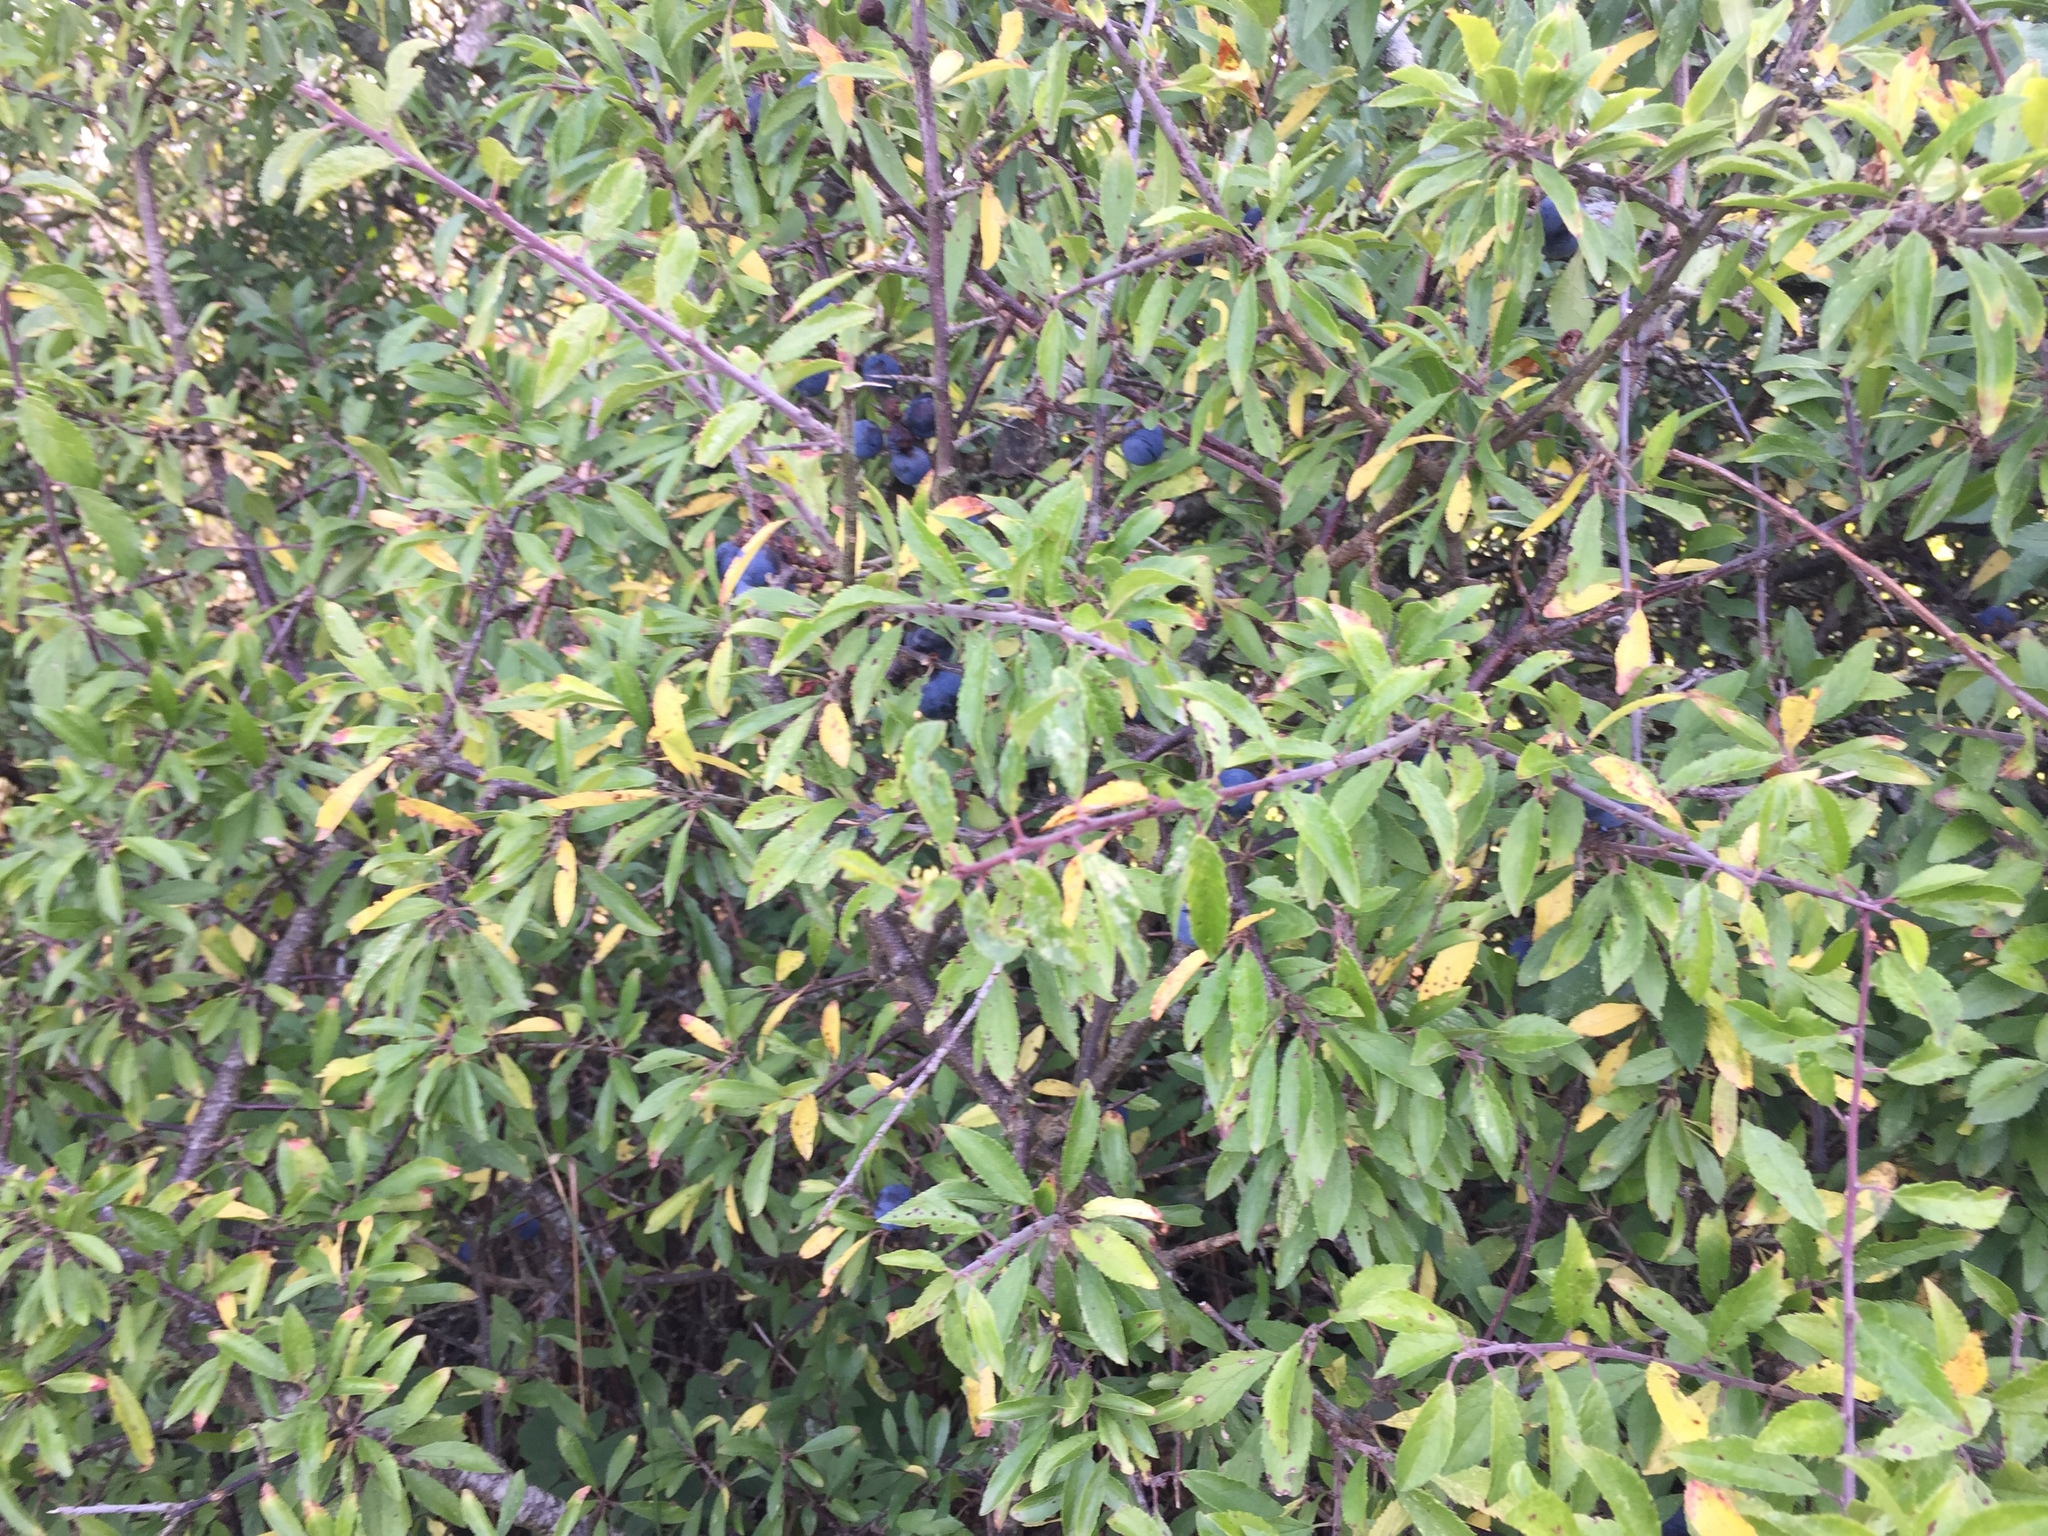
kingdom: Plantae
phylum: Tracheophyta
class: Magnoliopsida
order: Rosales
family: Rosaceae
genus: Prunus
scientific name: Prunus spinosa
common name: Blackthorn
